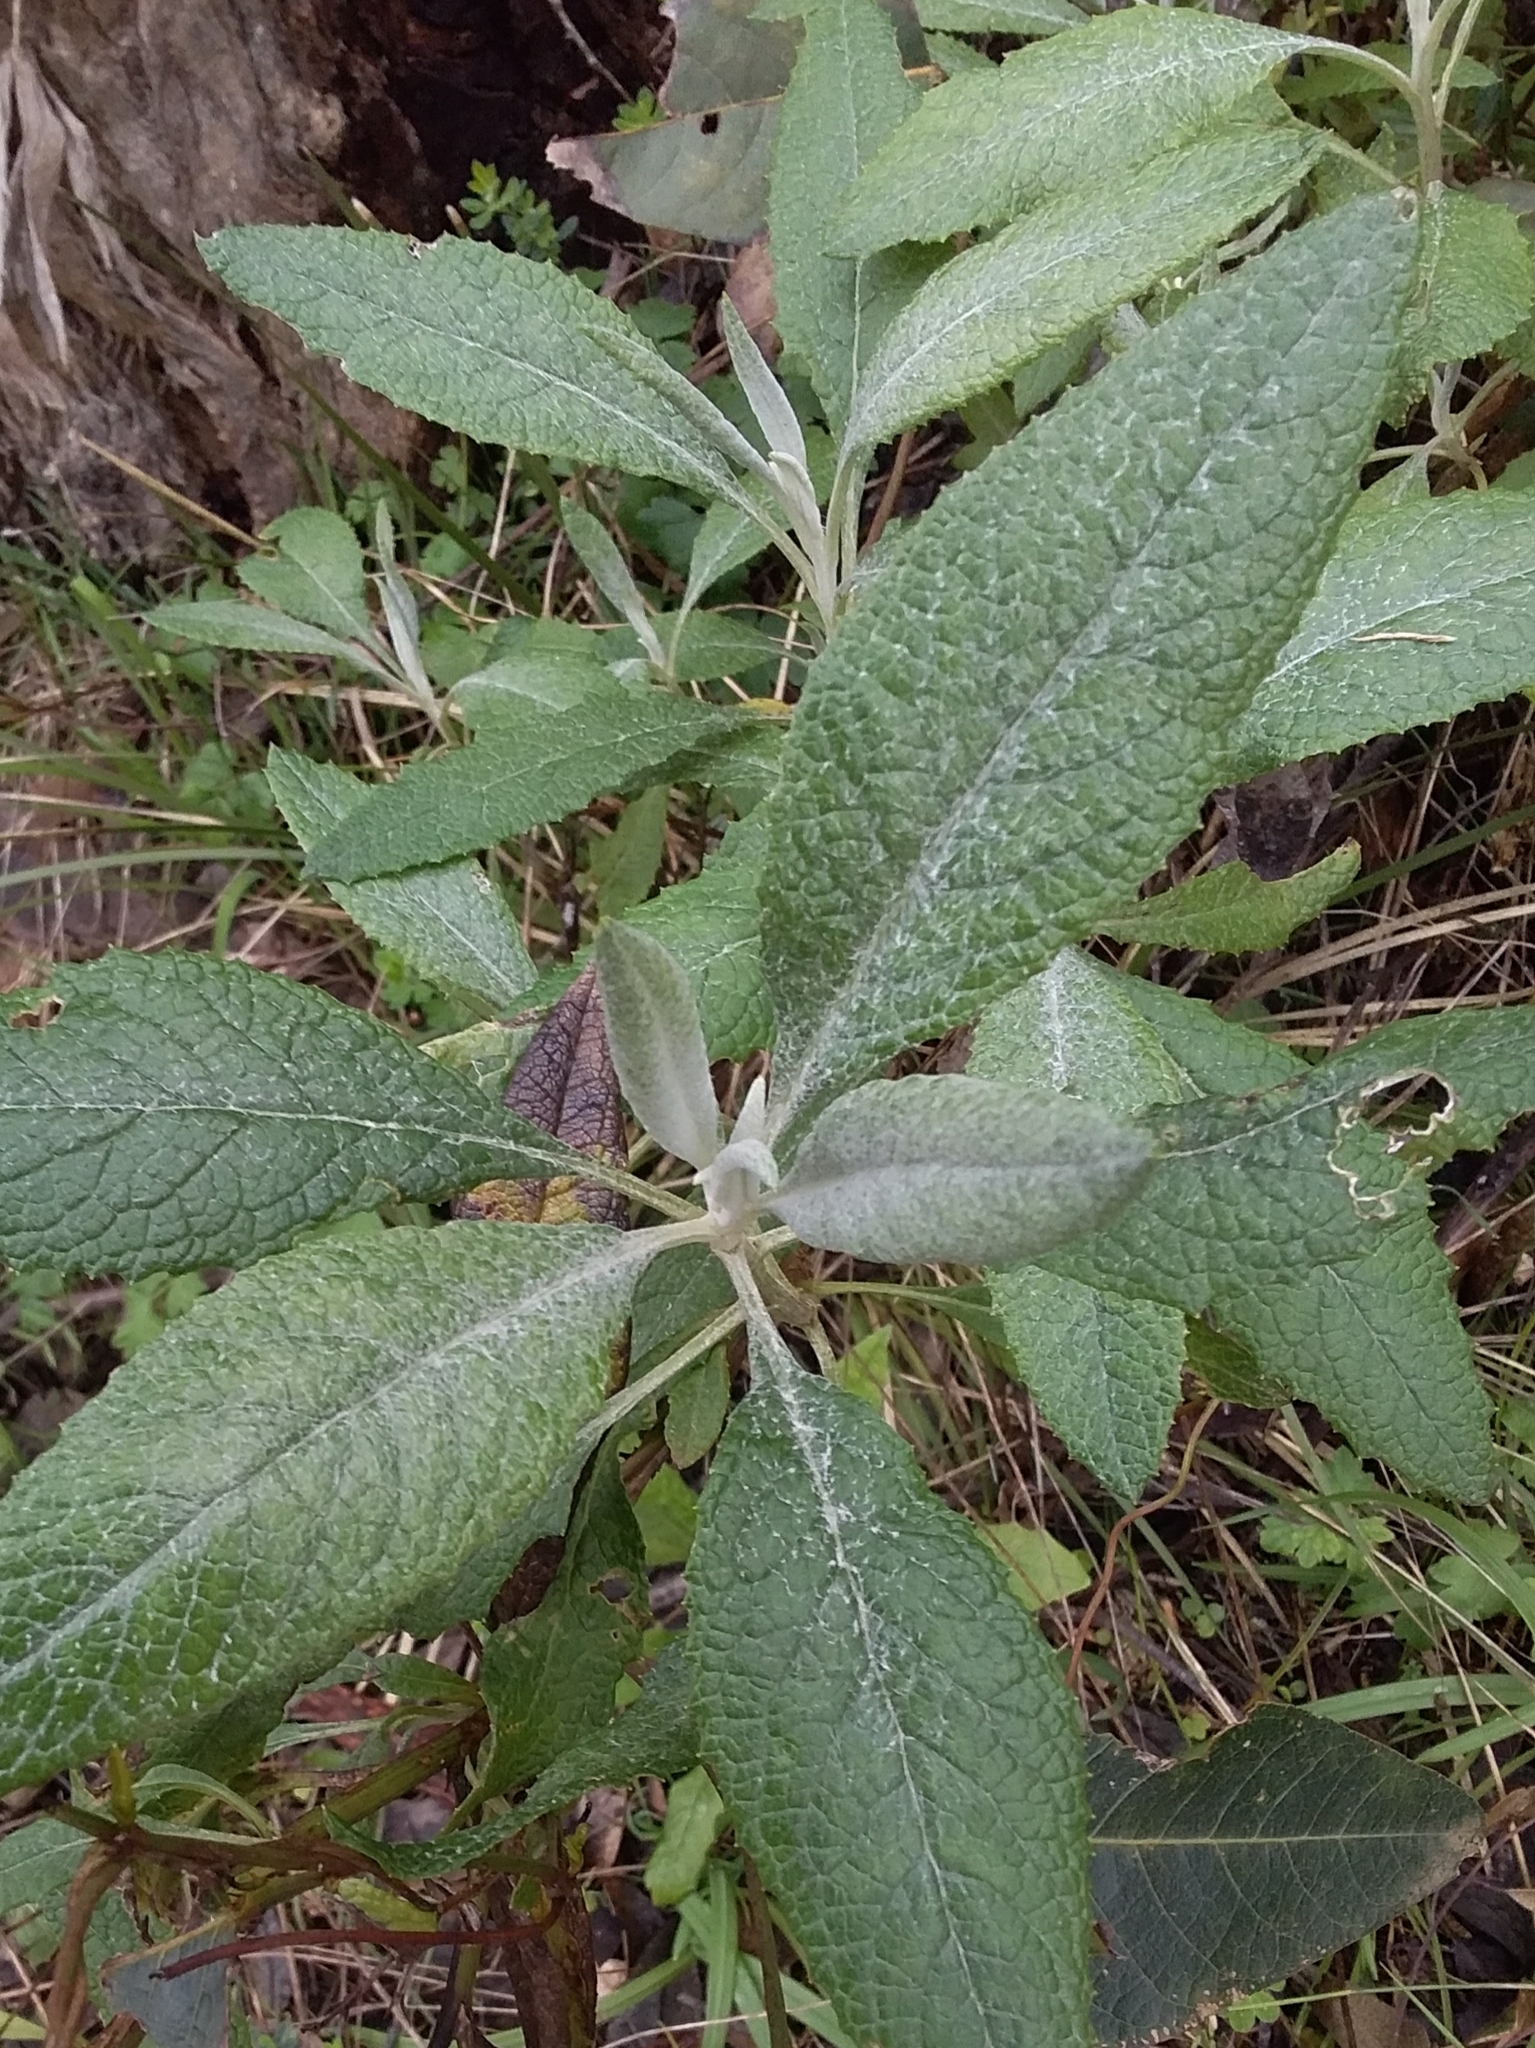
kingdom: Plantae
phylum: Tracheophyta
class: Magnoliopsida
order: Asterales
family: Asteraceae
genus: Senecio
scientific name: Senecio hypoleucus
